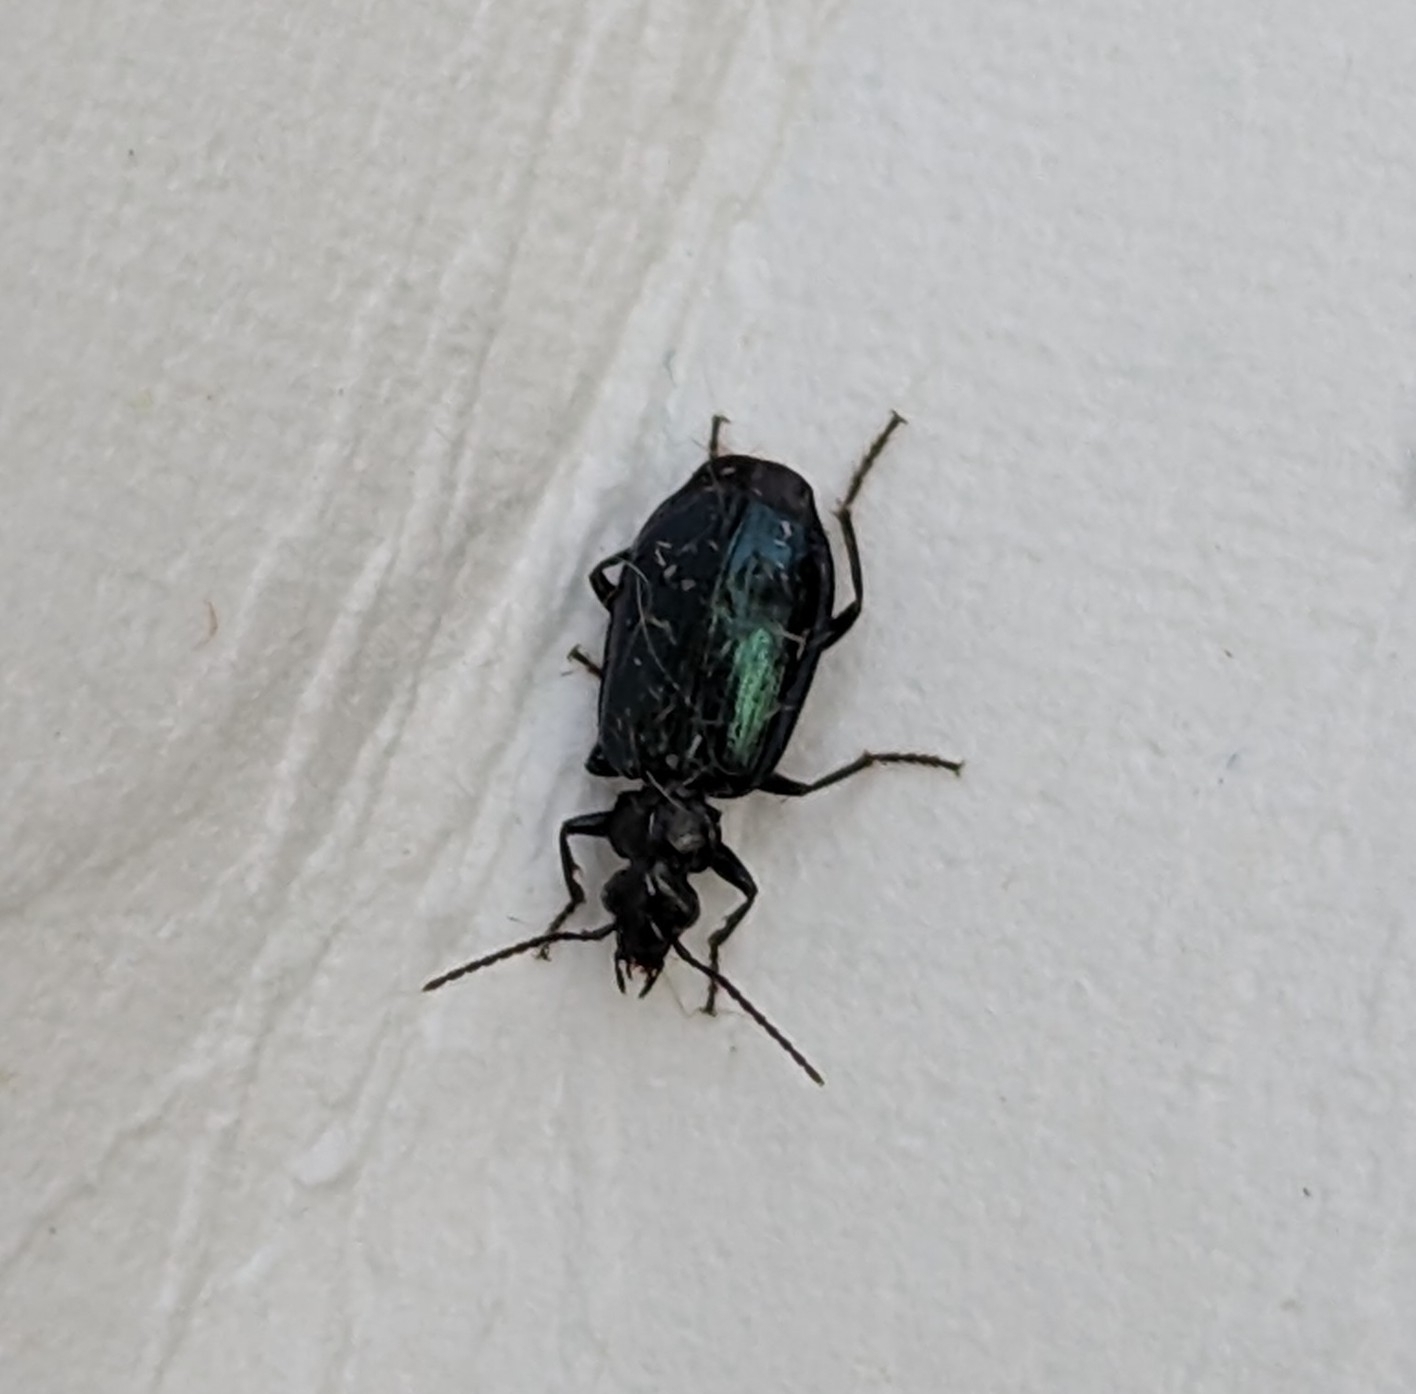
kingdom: Animalia
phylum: Arthropoda
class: Insecta
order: Coleoptera
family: Carabidae
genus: Lebia
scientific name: Lebia viridis
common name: Flower lebia beetle
